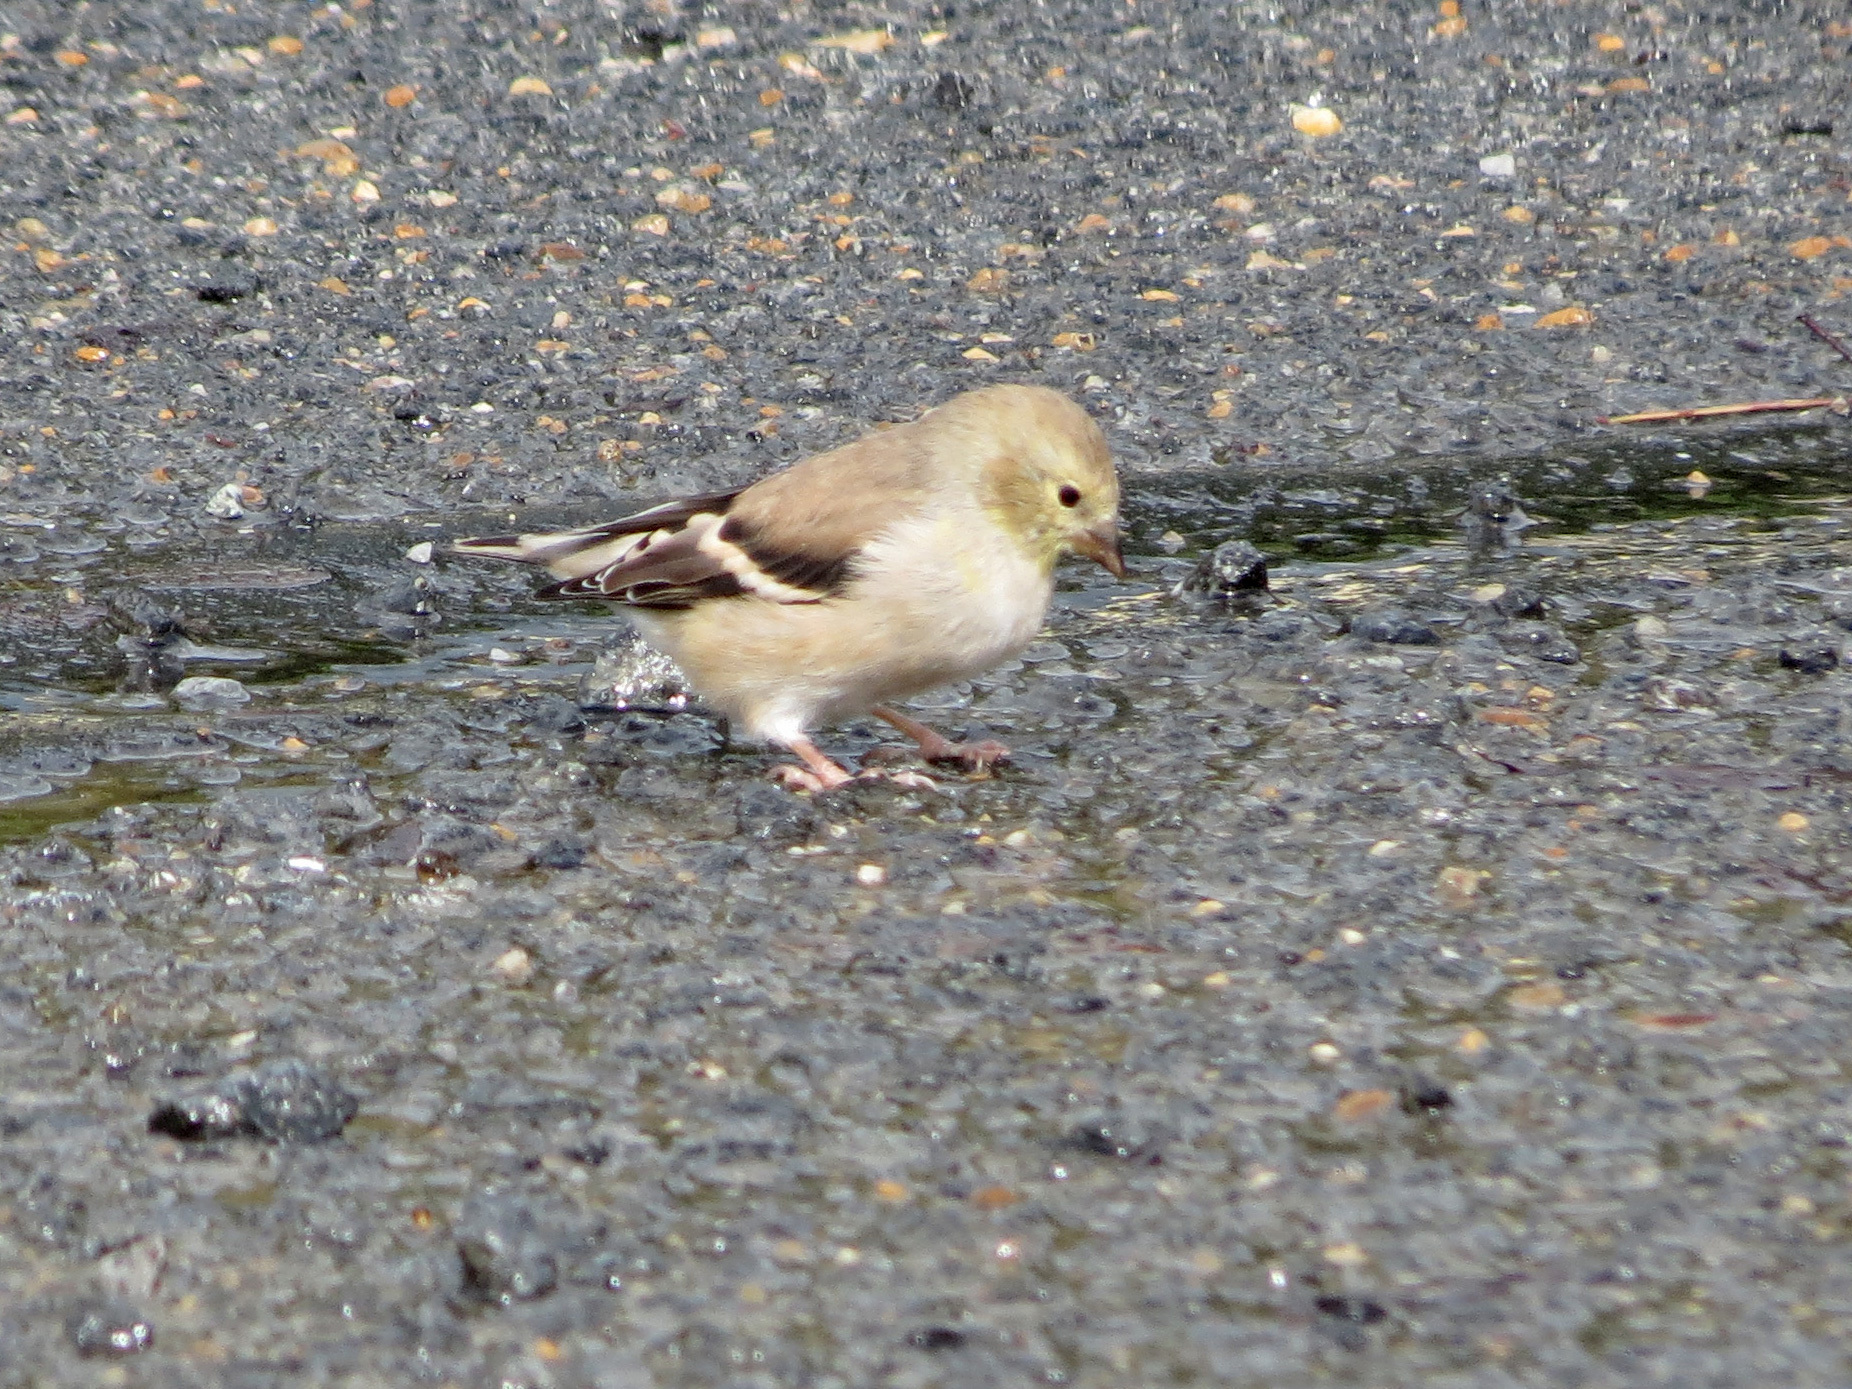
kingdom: Animalia
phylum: Chordata
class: Aves
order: Passeriformes
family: Fringillidae
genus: Spinus
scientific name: Spinus tristis
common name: American goldfinch
